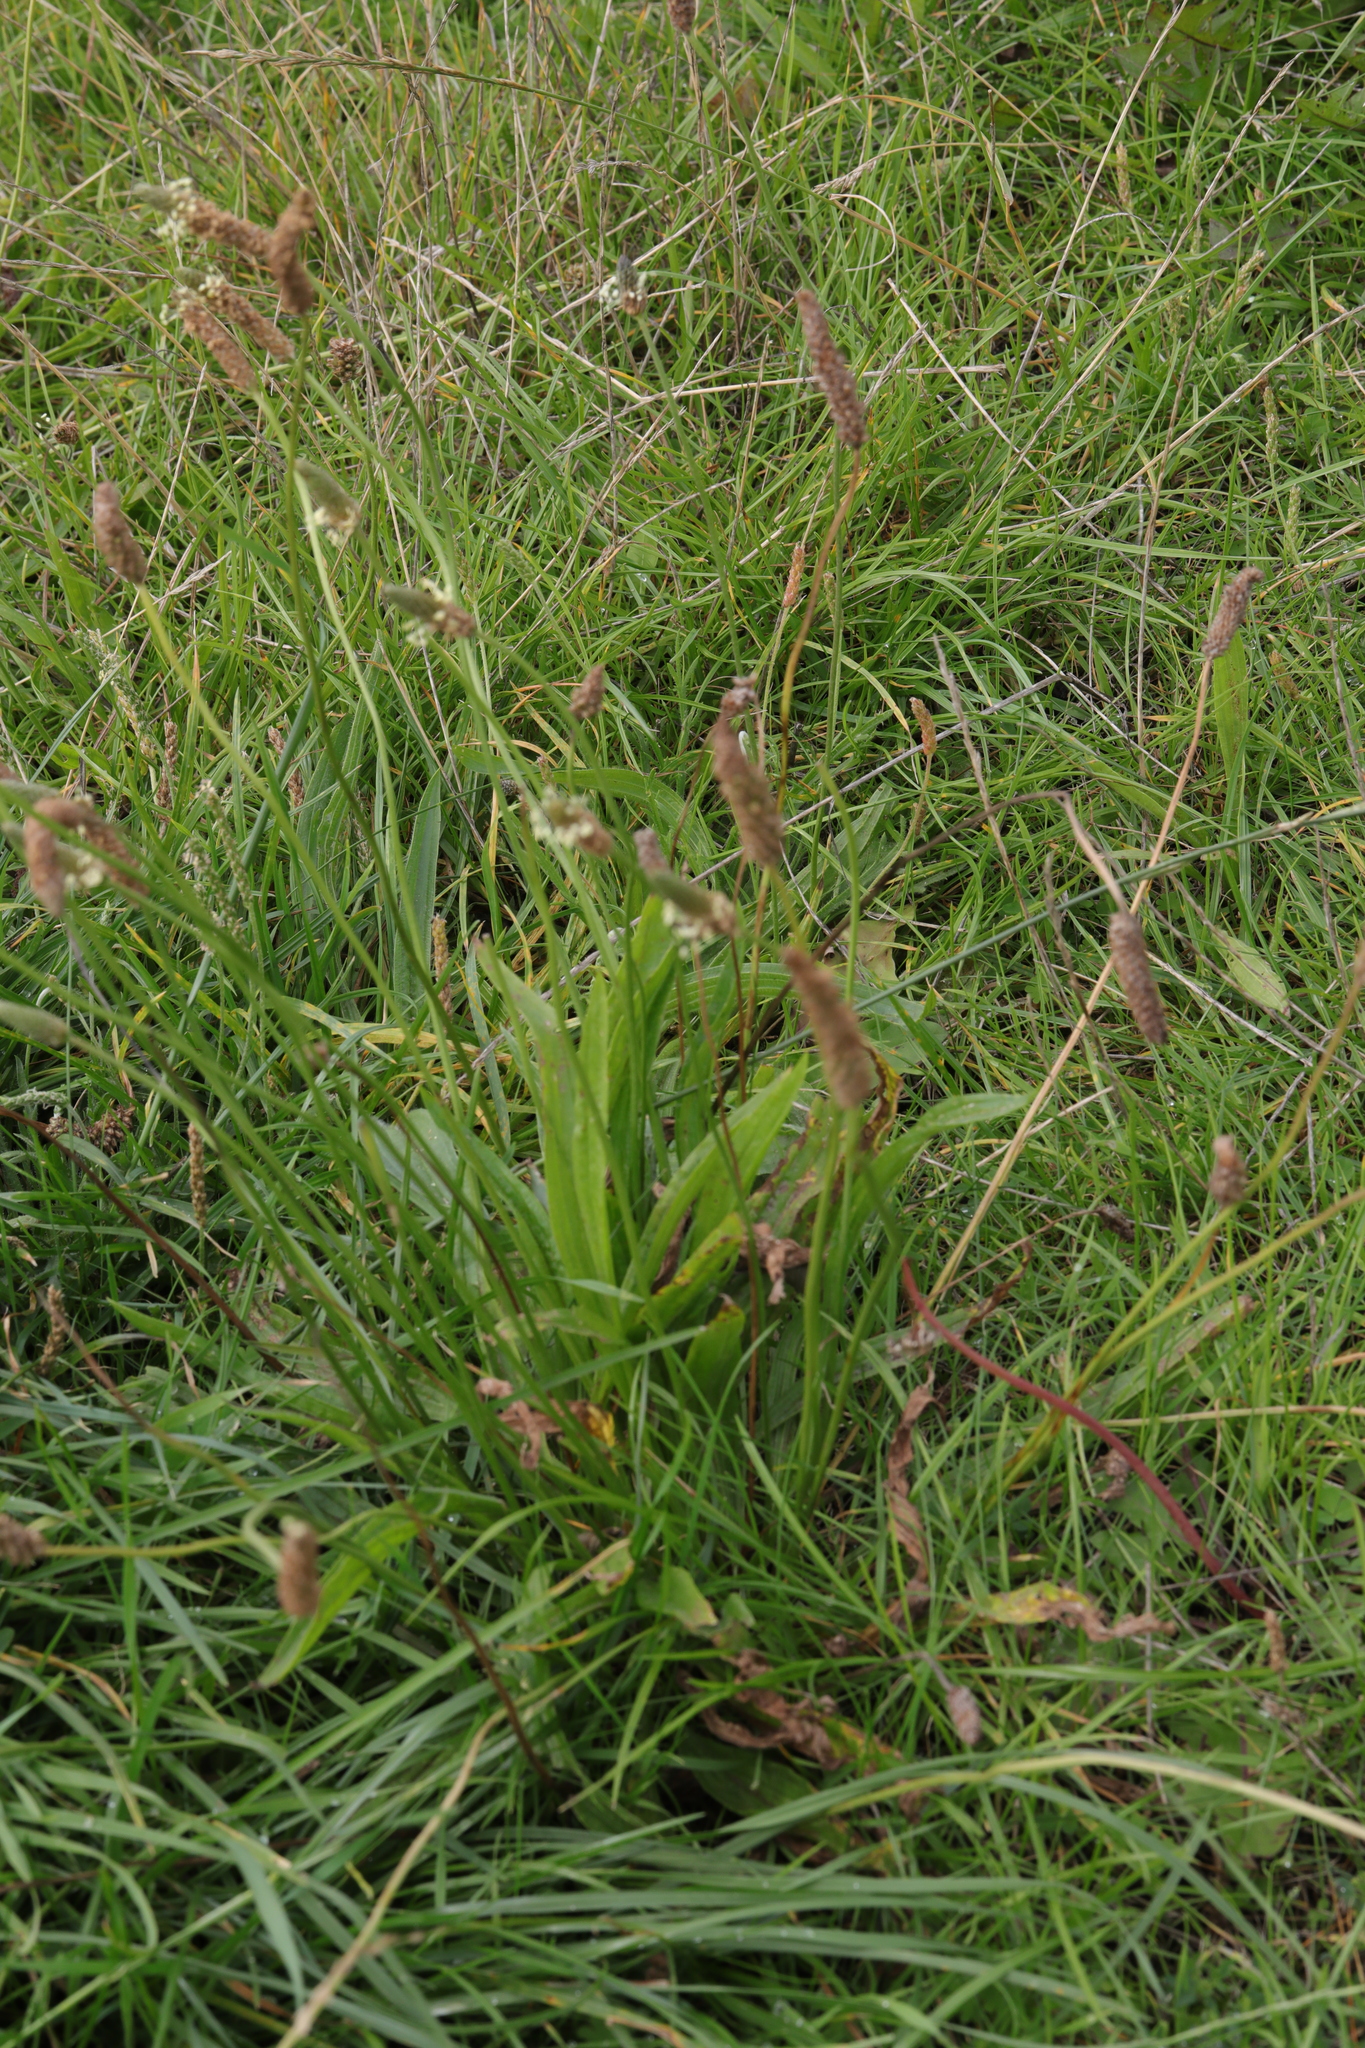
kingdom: Plantae
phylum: Tracheophyta
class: Magnoliopsida
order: Lamiales
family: Plantaginaceae
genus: Plantago
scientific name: Plantago lanceolata
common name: Ribwort plantain
